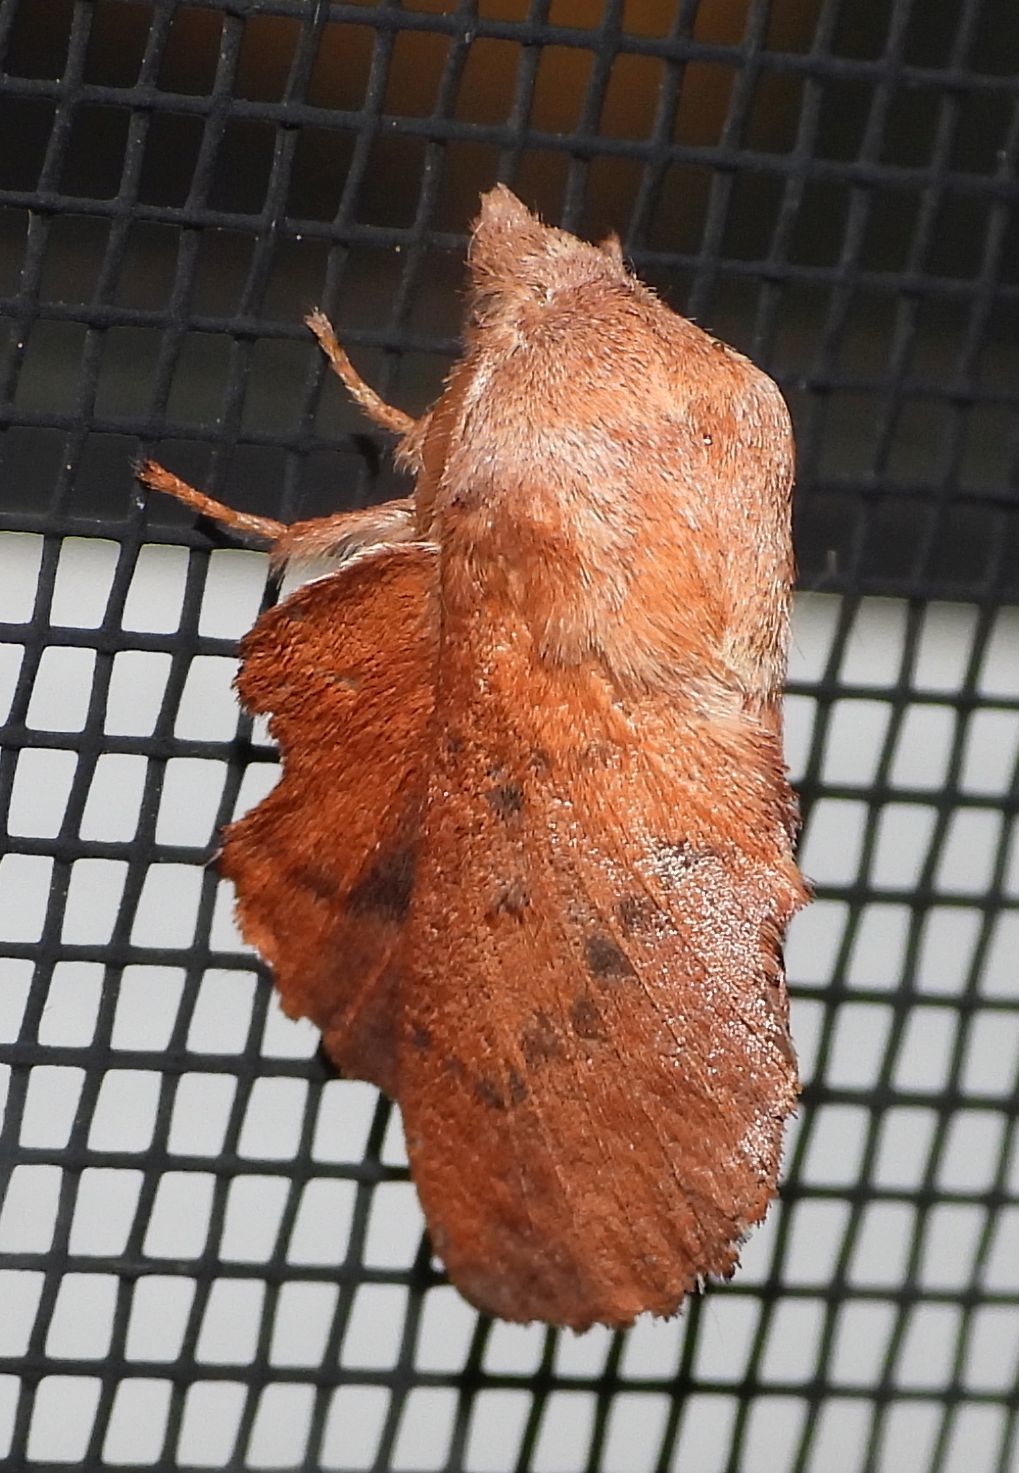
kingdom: Animalia
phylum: Arthropoda
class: Insecta
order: Lepidoptera
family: Lasiocampidae
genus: Phyllodesma
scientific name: Phyllodesma americana
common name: American lappet moth
